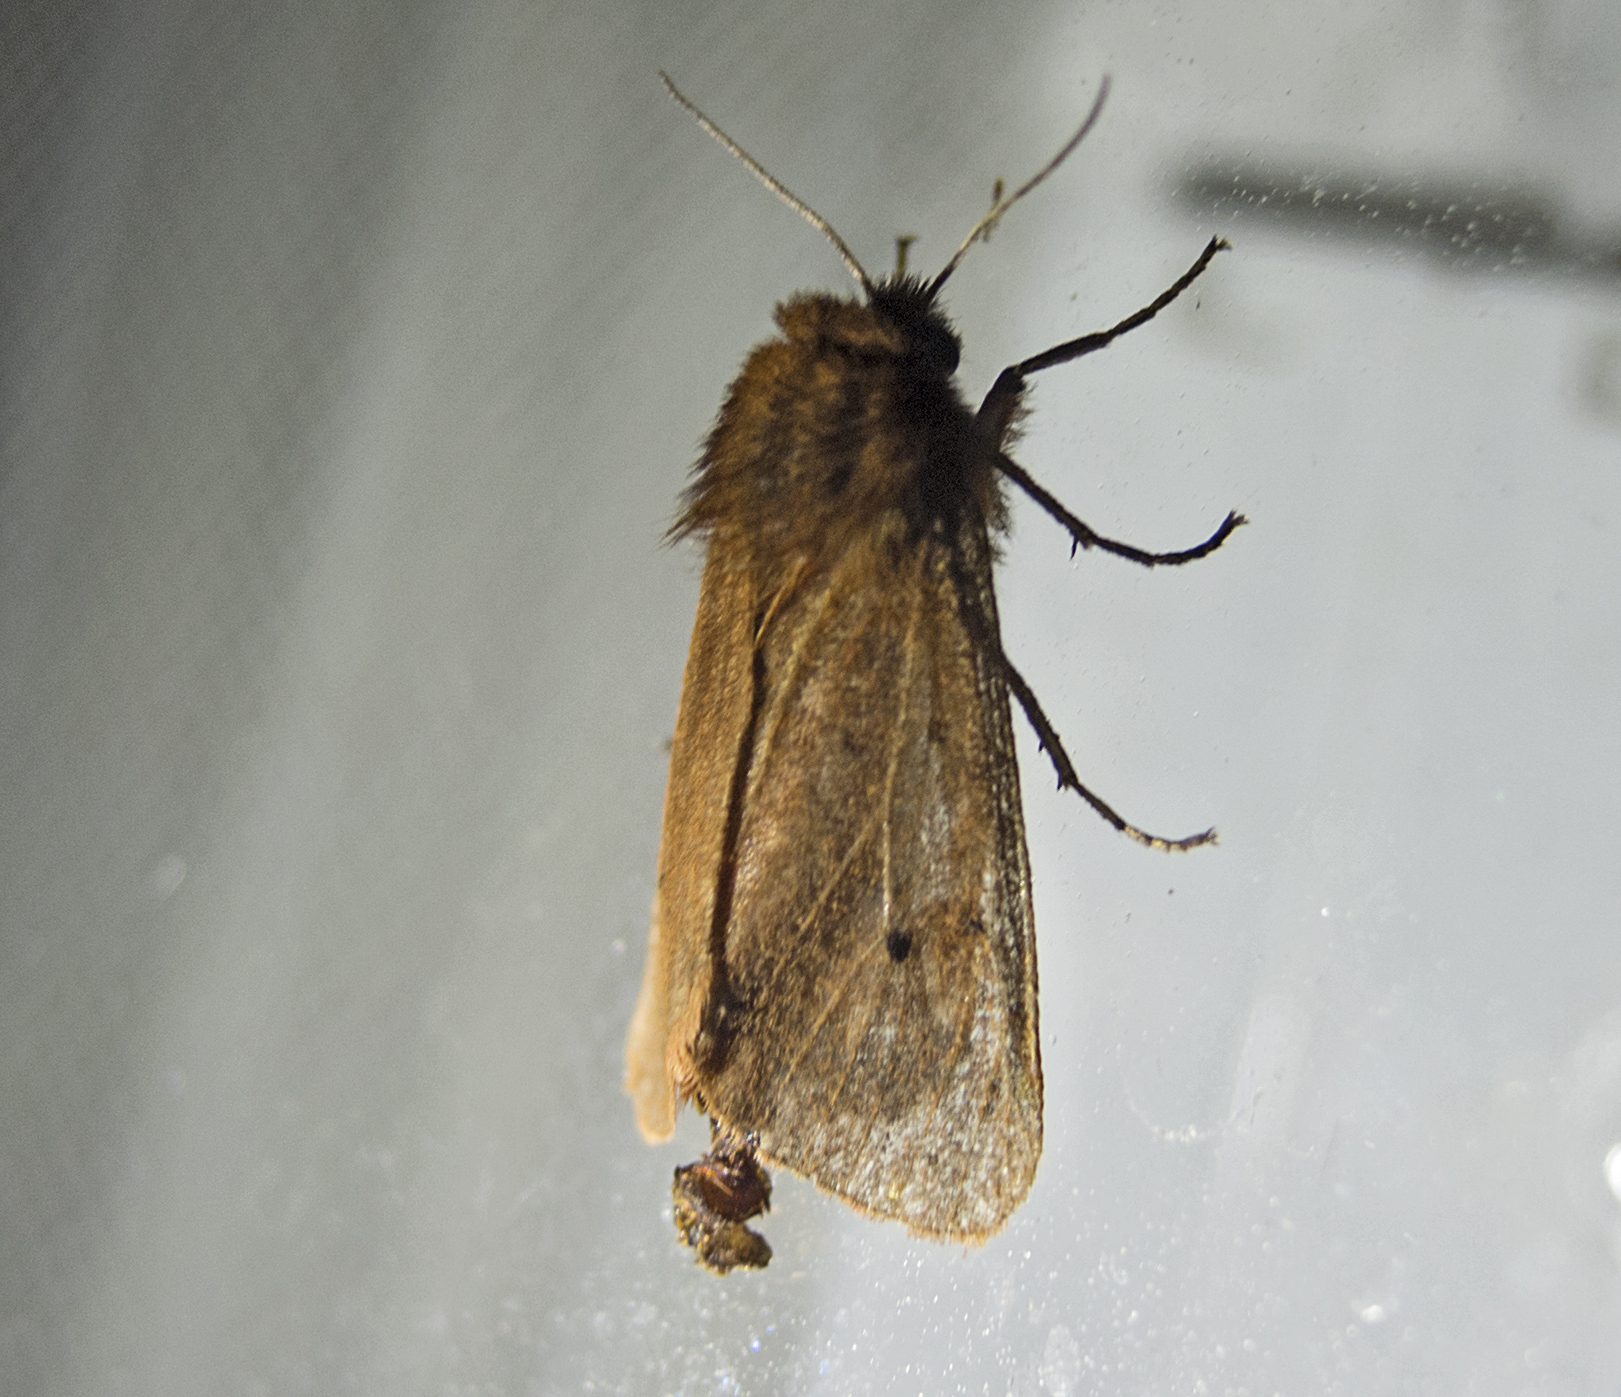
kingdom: Animalia
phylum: Arthropoda
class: Insecta
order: Lepidoptera
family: Erebidae
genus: Phragmatobia
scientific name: Phragmatobia fuliginosa
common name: Ruby tiger
